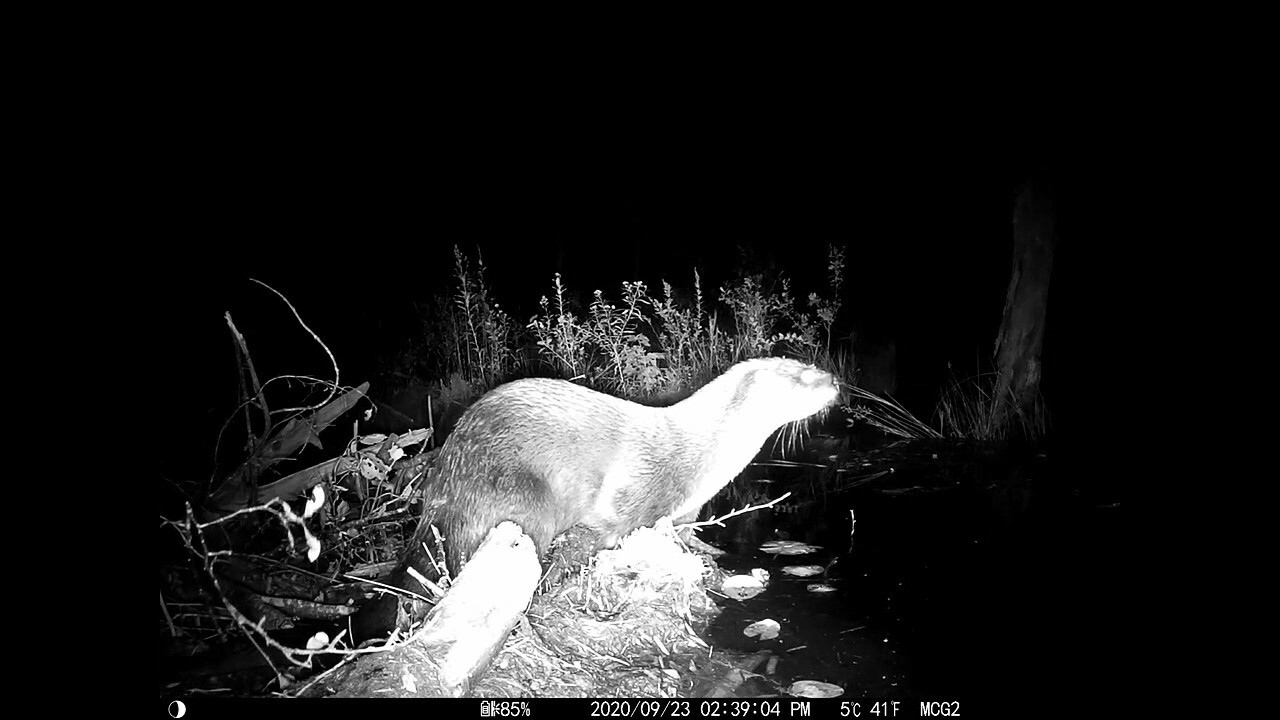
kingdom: Animalia
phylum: Chordata
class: Mammalia
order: Carnivora
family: Mustelidae
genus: Lontra
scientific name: Lontra canadensis
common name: North american river otter
